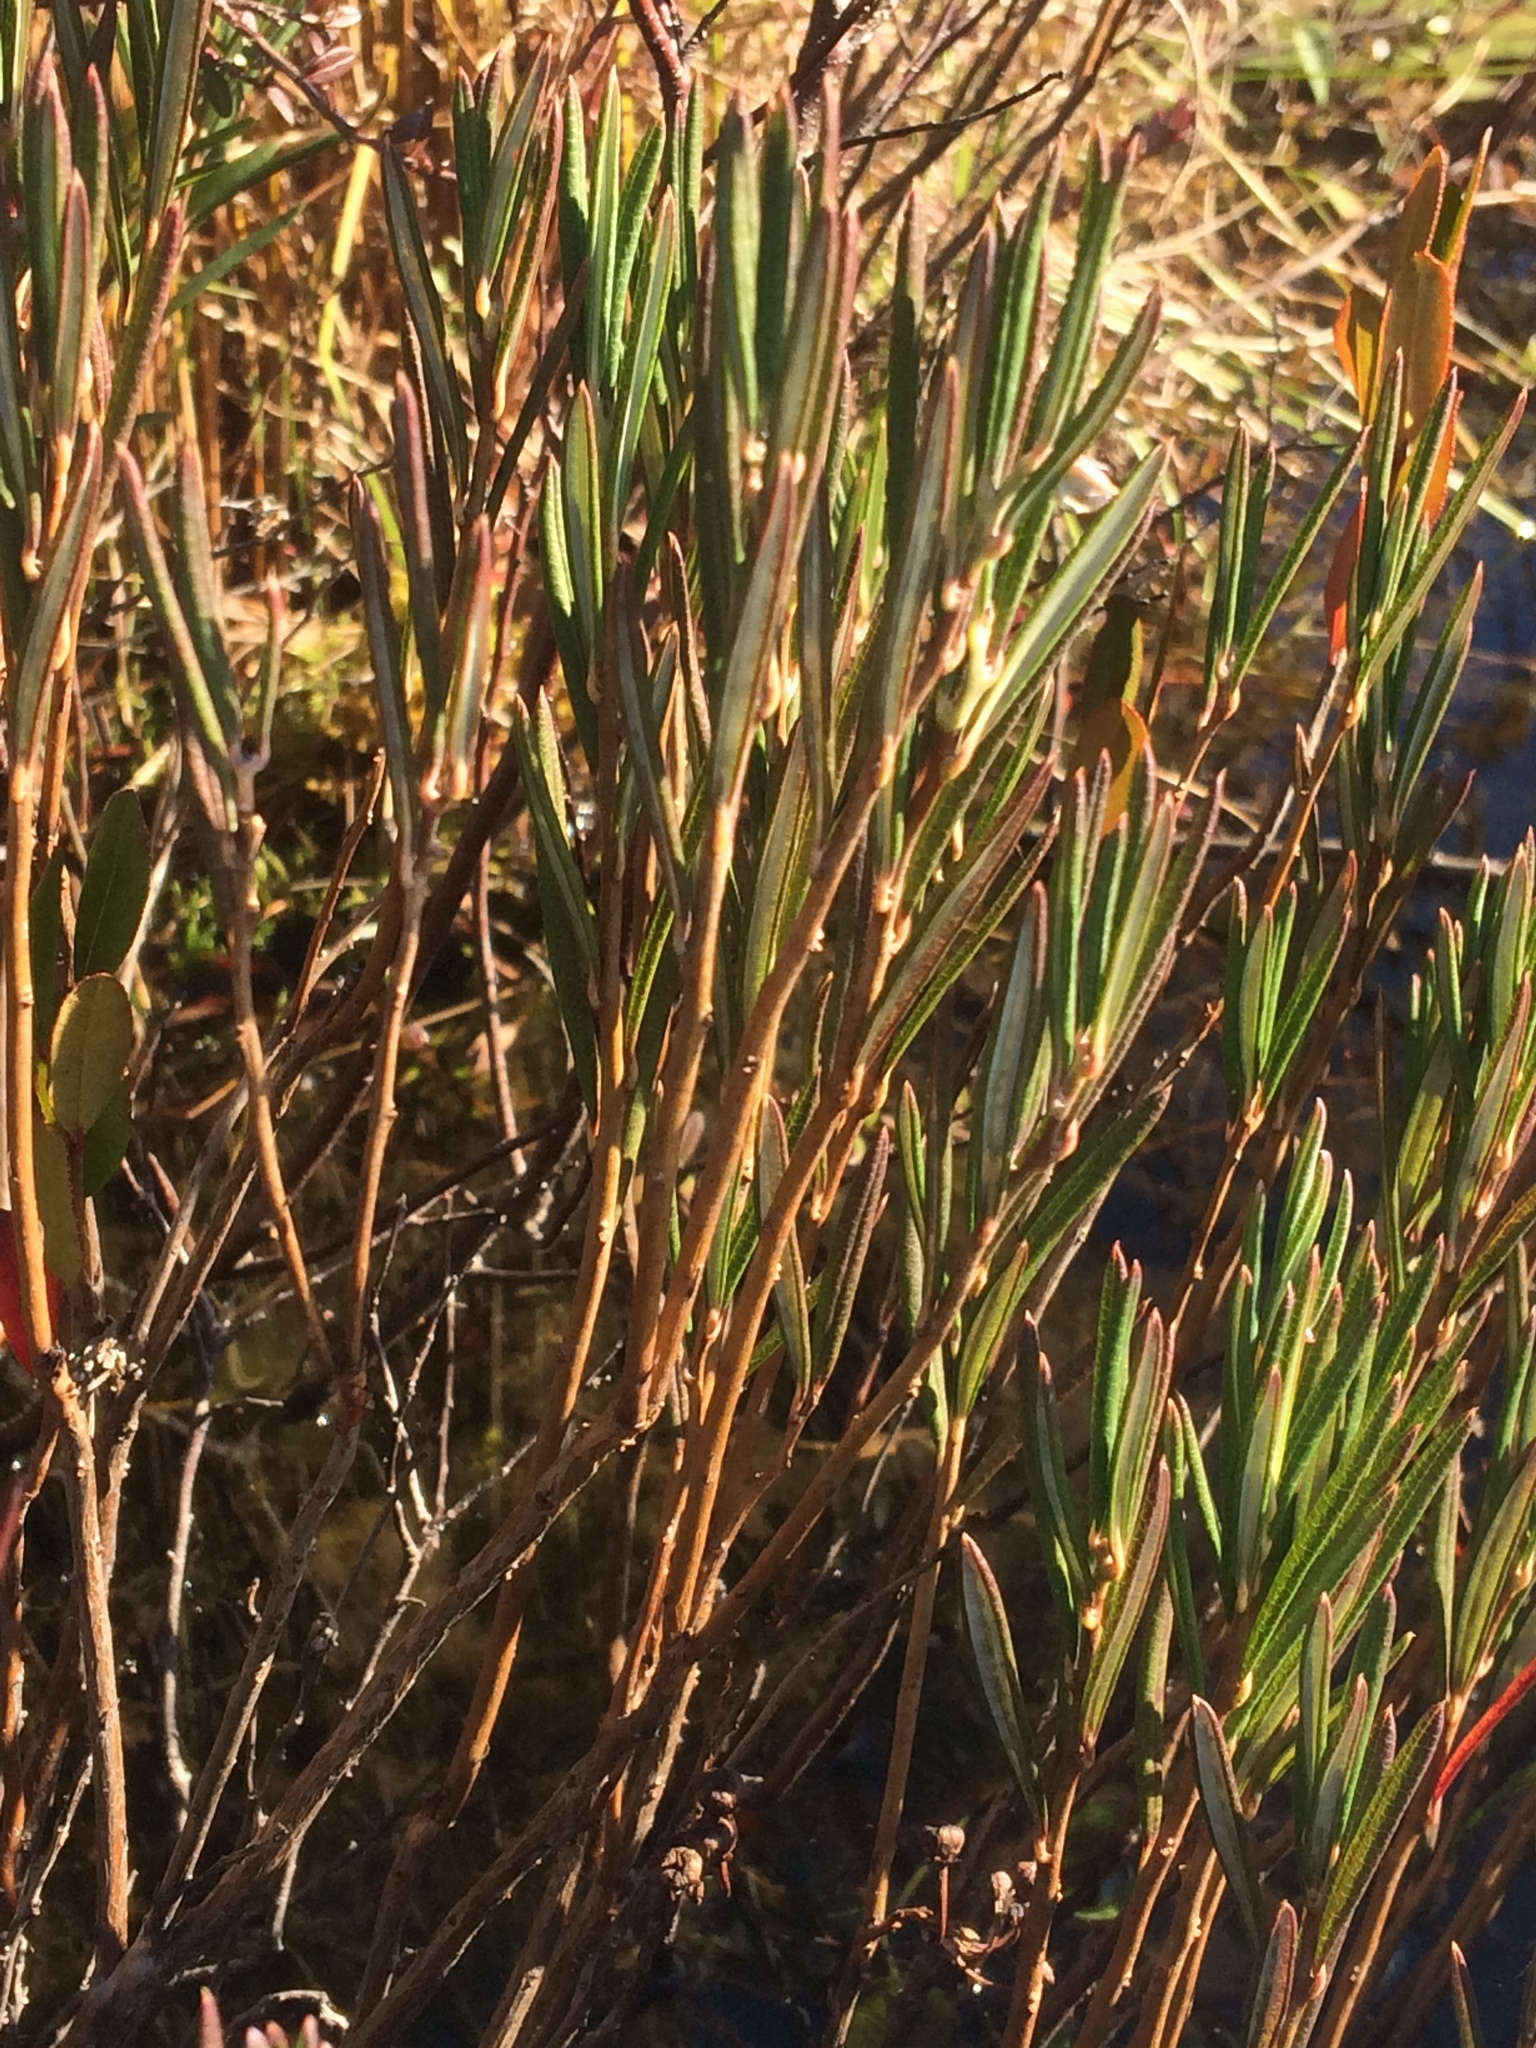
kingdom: Plantae
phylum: Tracheophyta
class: Magnoliopsida
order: Ericales
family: Ericaceae
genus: Andromeda
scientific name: Andromeda polifolia
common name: Bog-rosemary
